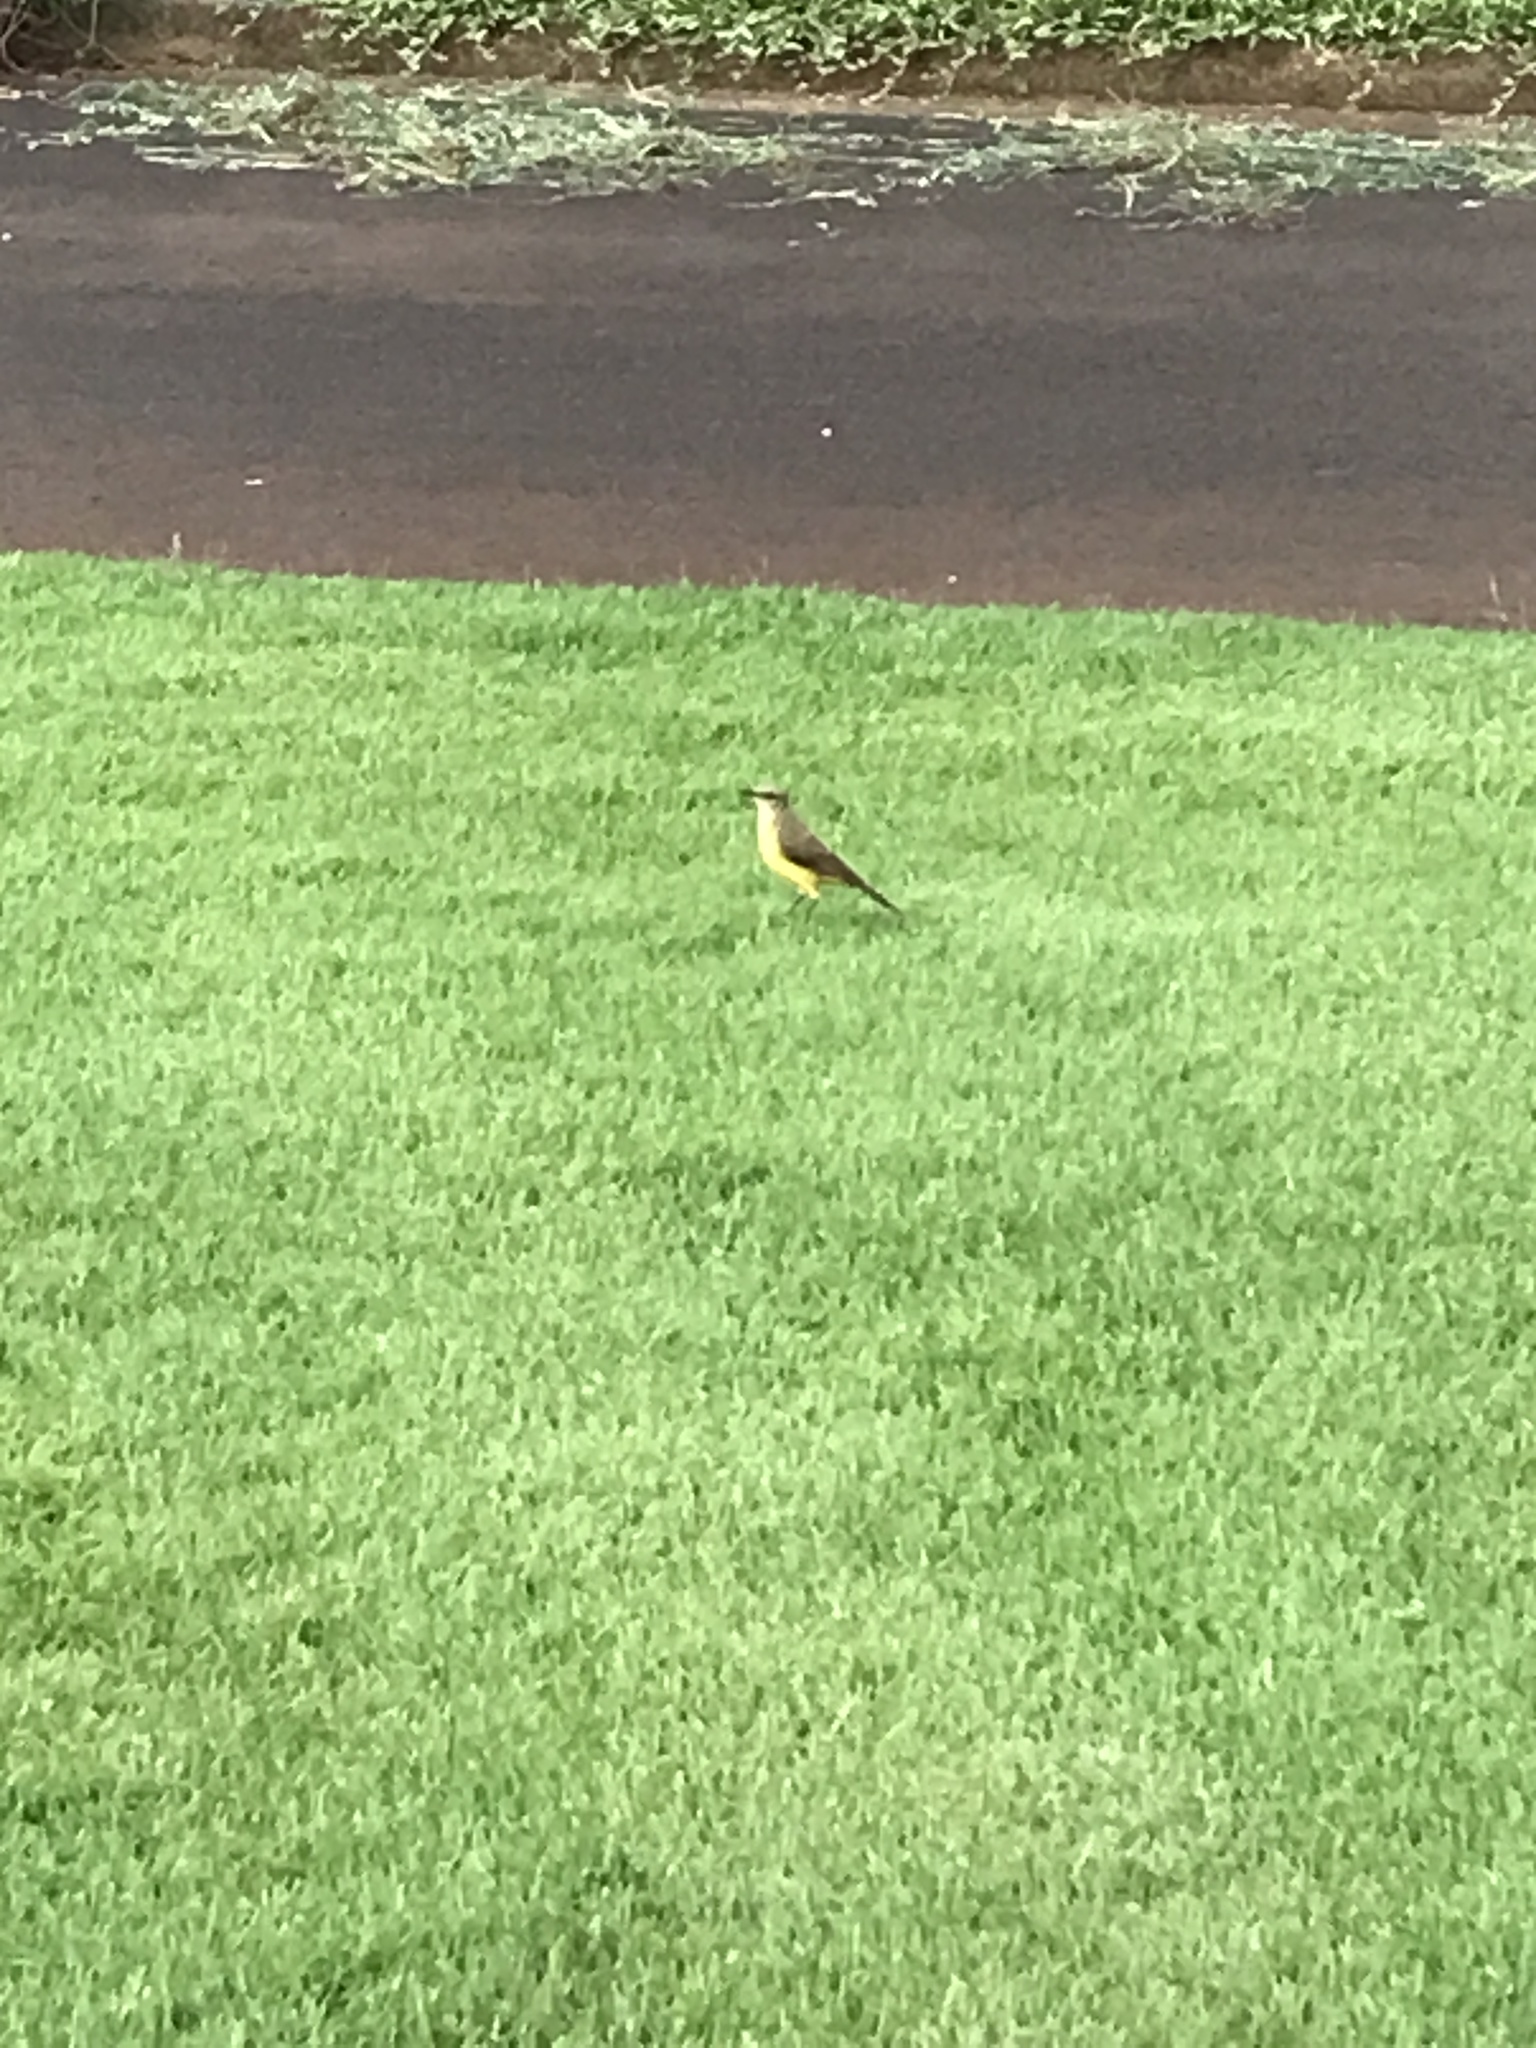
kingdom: Animalia
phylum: Chordata
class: Aves
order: Passeriformes
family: Tyrannidae
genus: Machetornis
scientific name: Machetornis rixosa
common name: Cattle tyrant
